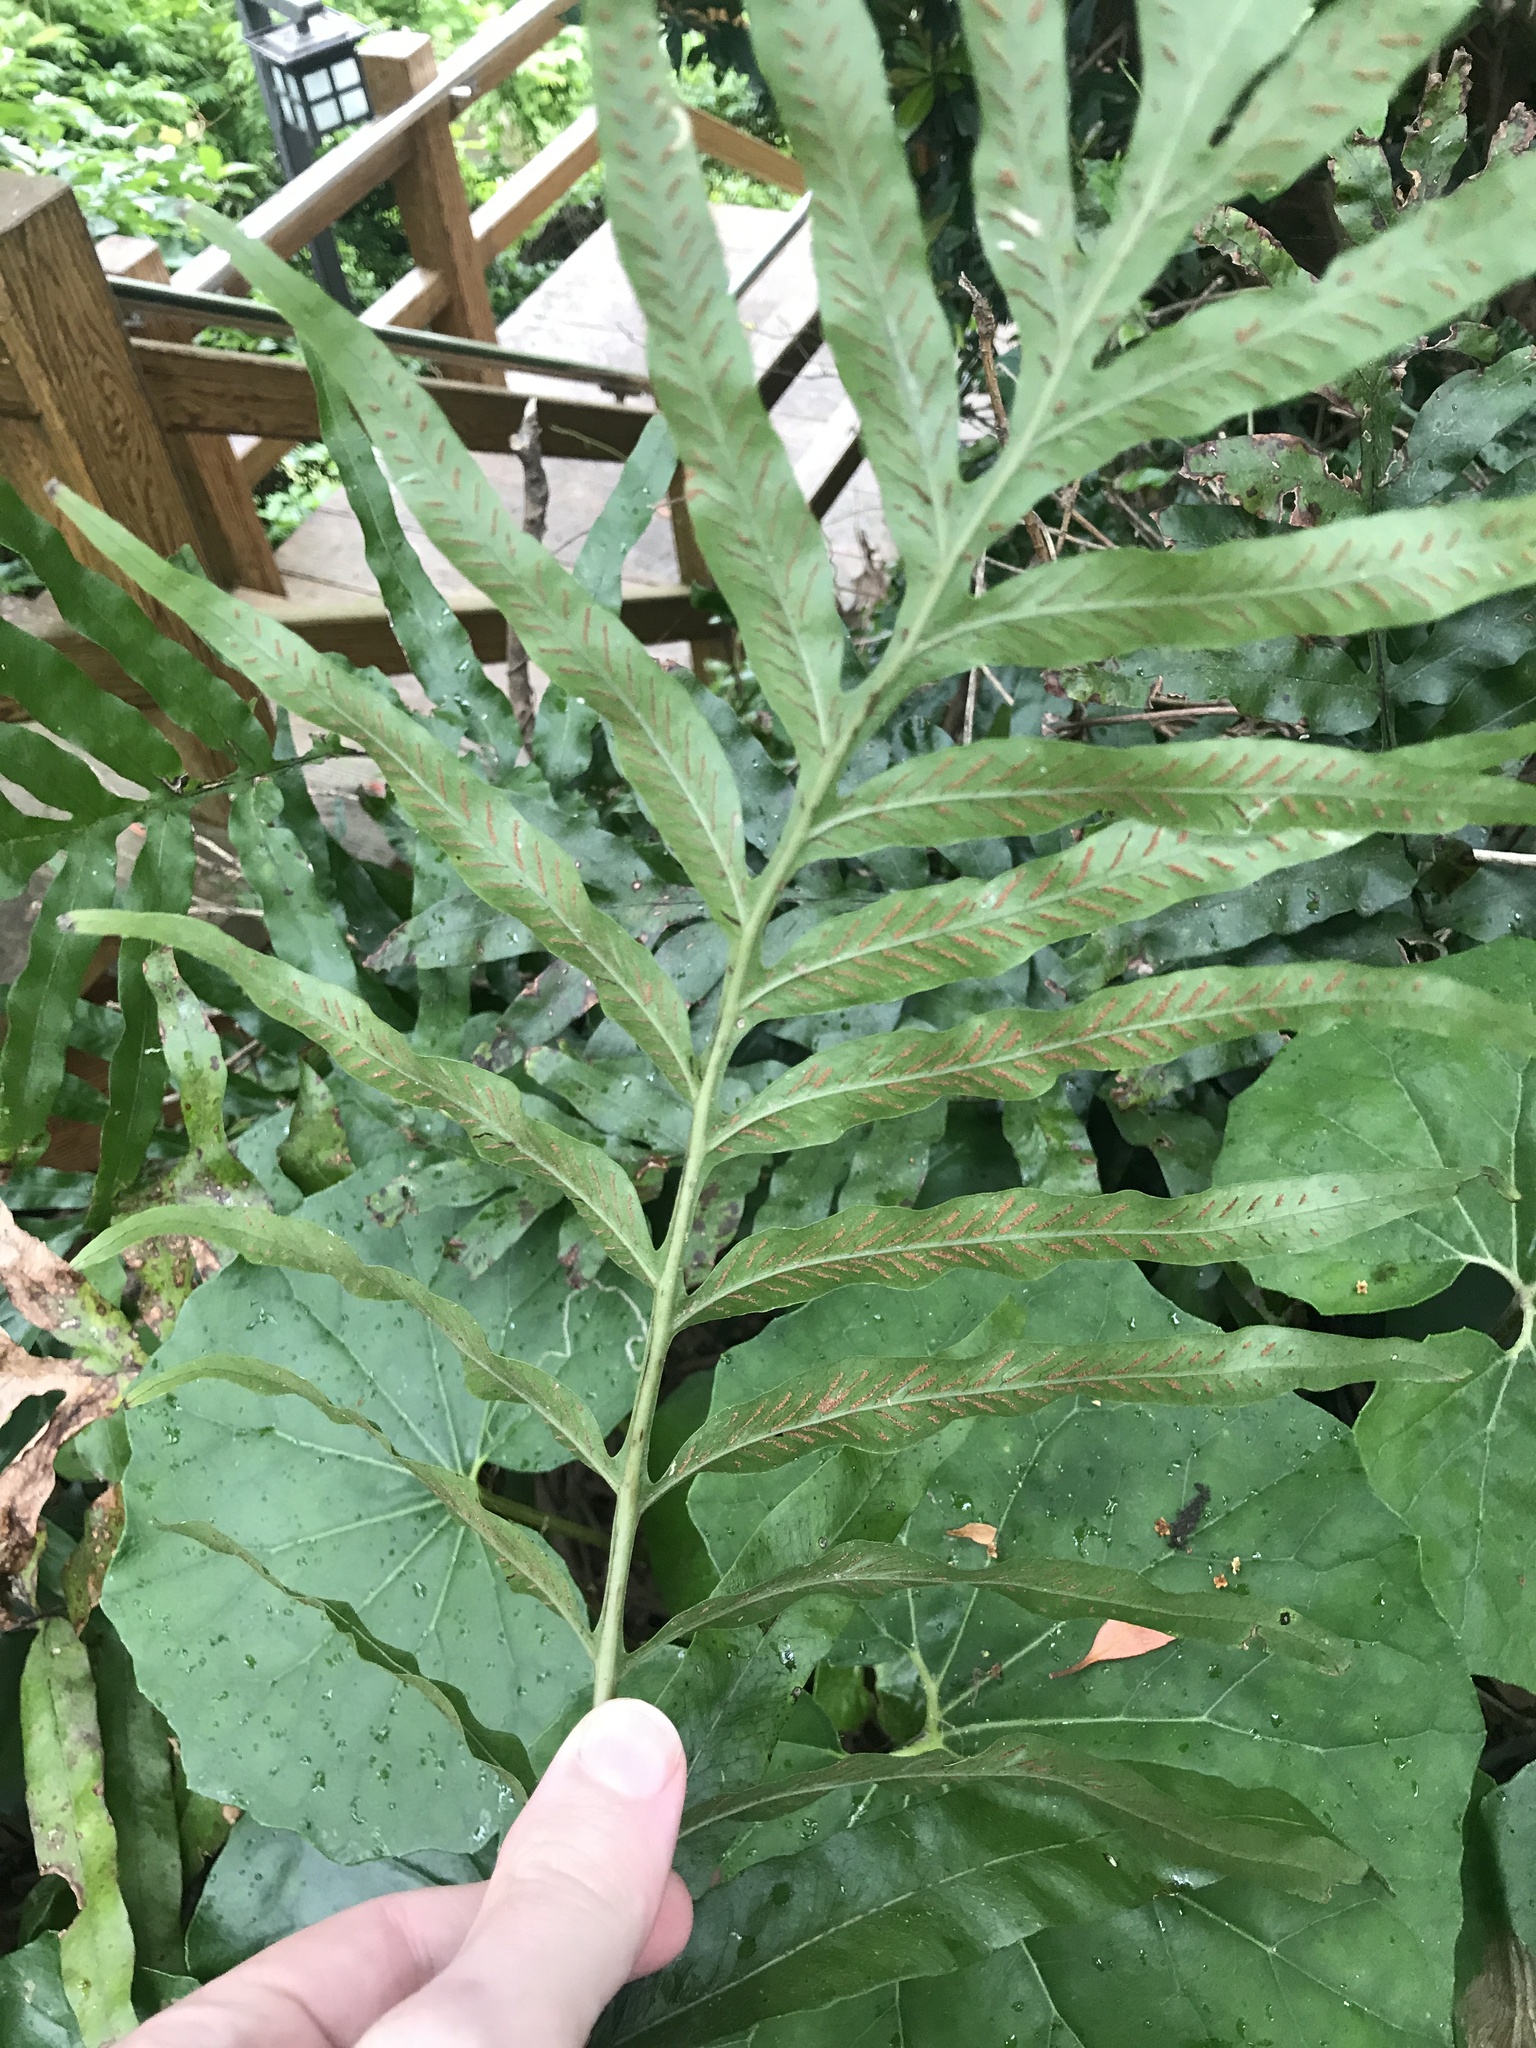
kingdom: Plantae
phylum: Tracheophyta
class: Polypodiopsida
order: Polypodiales
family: Polypodiaceae
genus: Leptochilus
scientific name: Leptochilus ellipticus
